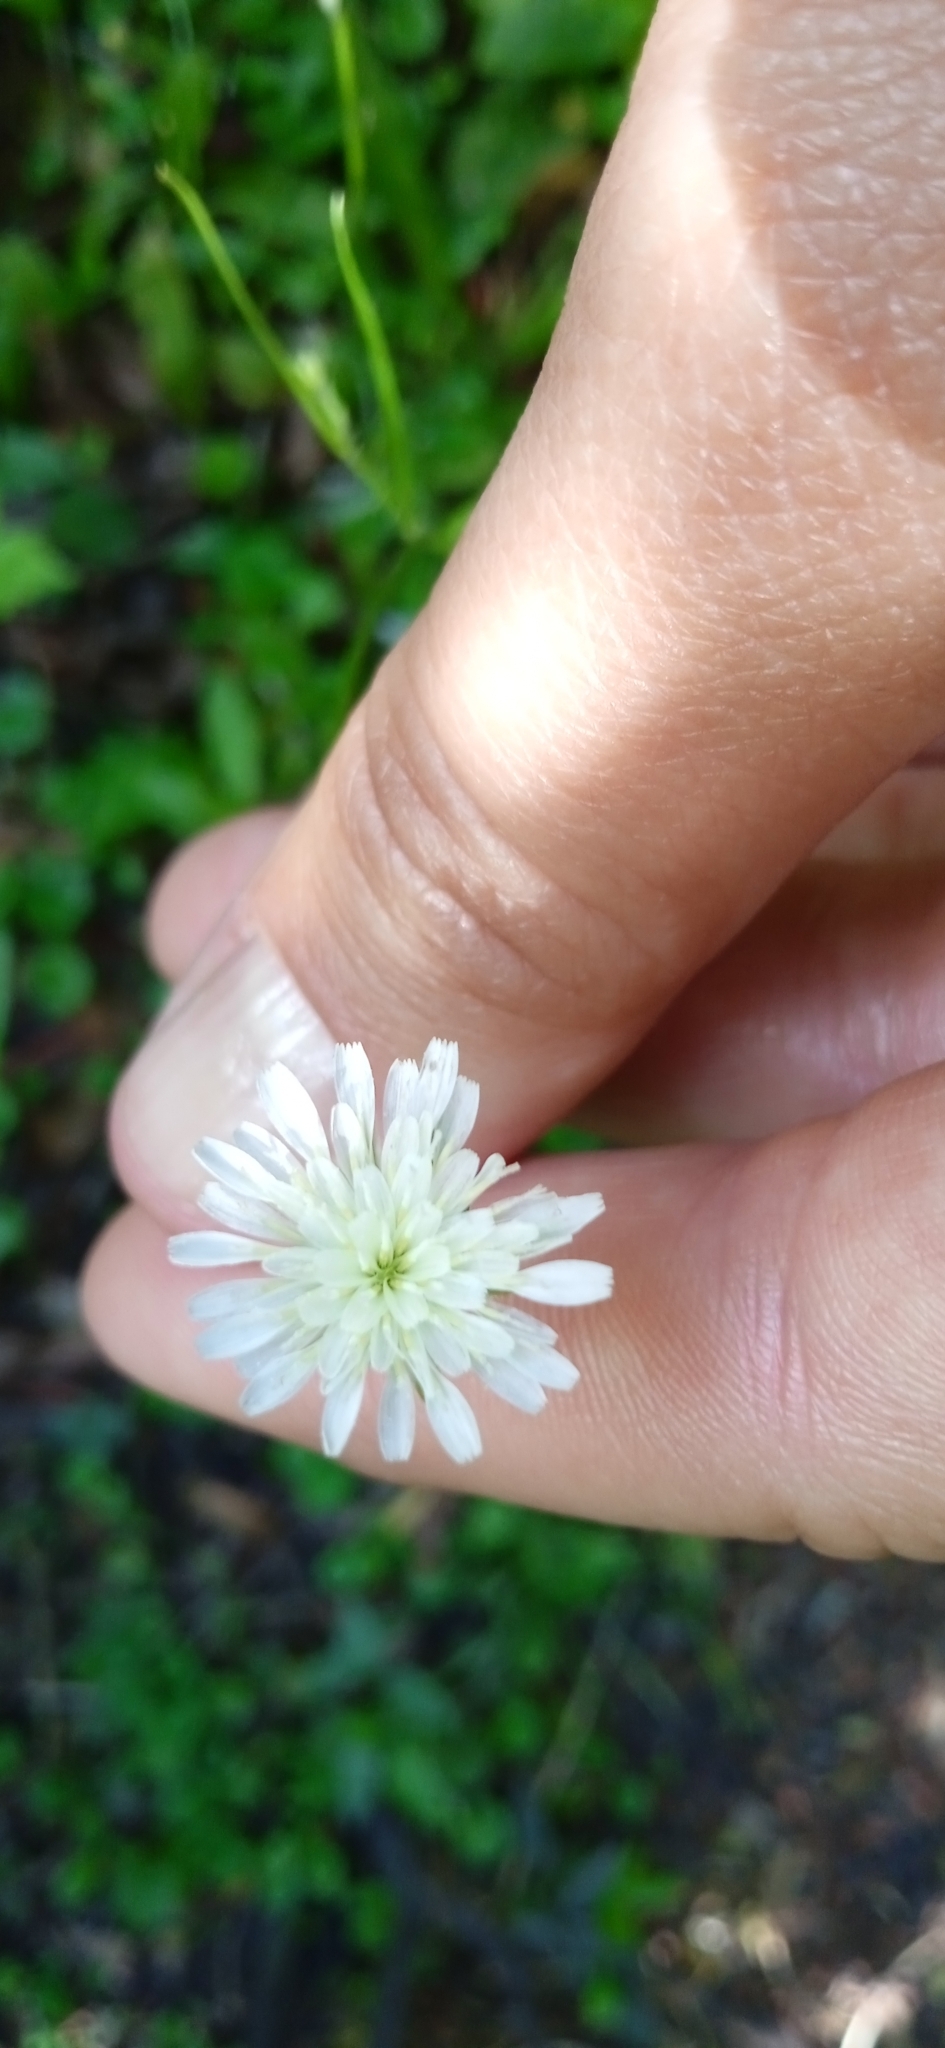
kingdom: Plantae
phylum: Tracheophyta
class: Magnoliopsida
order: Asterales
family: Asteraceae
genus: Hypochaeris
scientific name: Hypochaeris albiflora
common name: White flatweed
